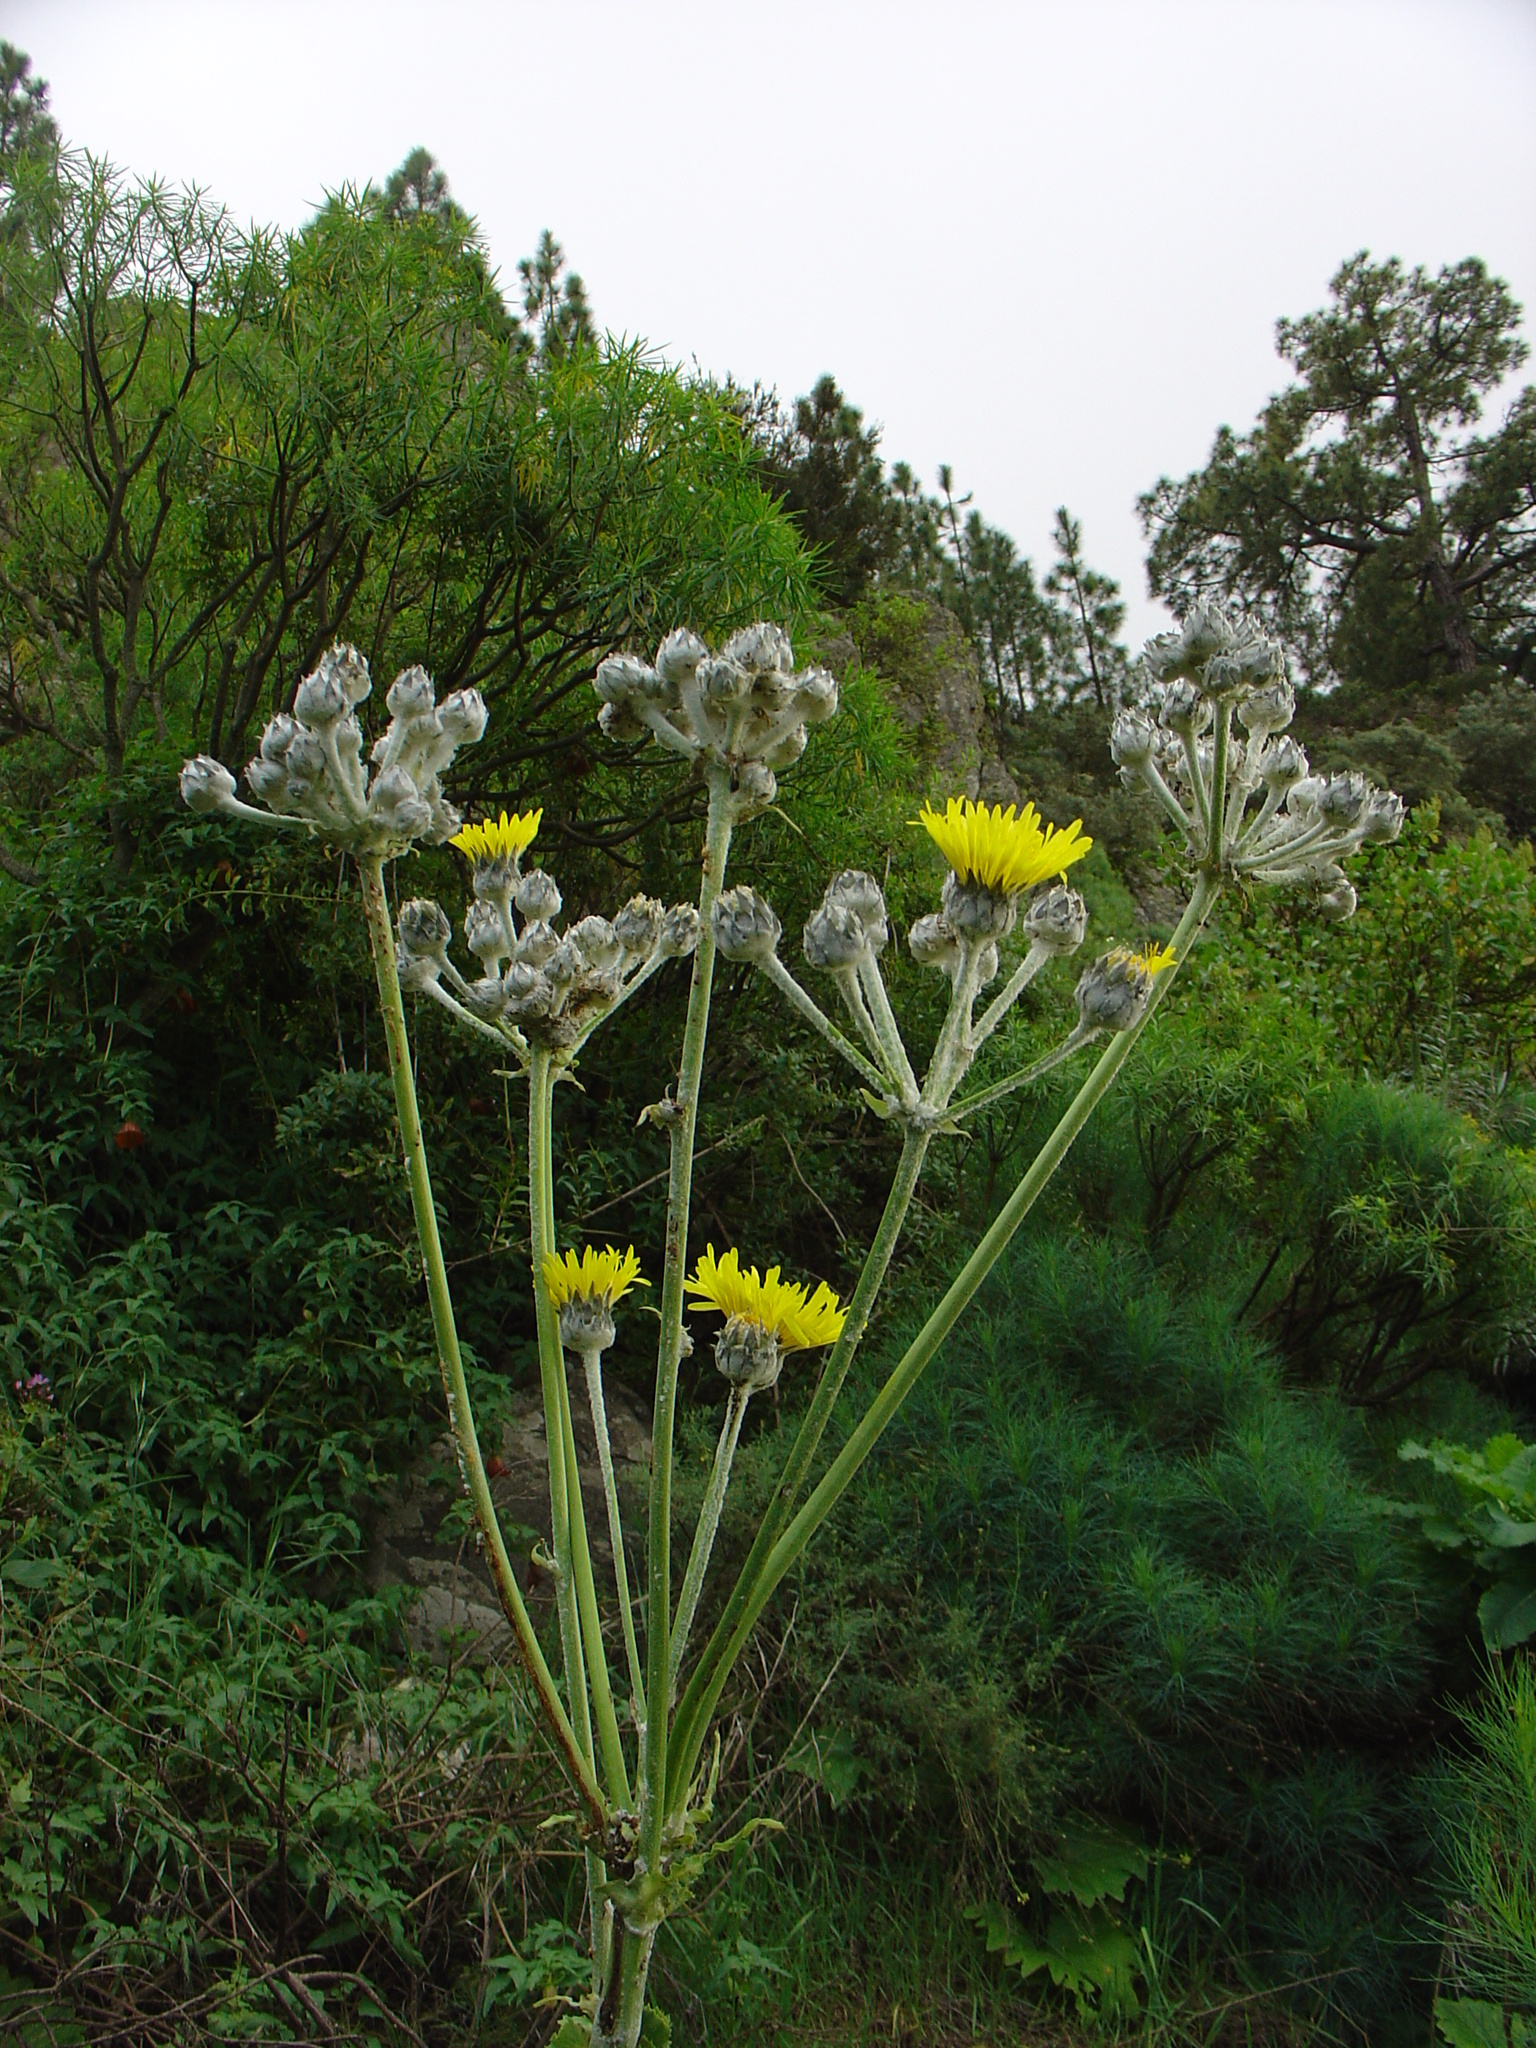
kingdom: Plantae
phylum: Tracheophyta
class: Magnoliopsida
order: Asterales
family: Asteraceae
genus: Sonchus
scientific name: Sonchus acaulis
